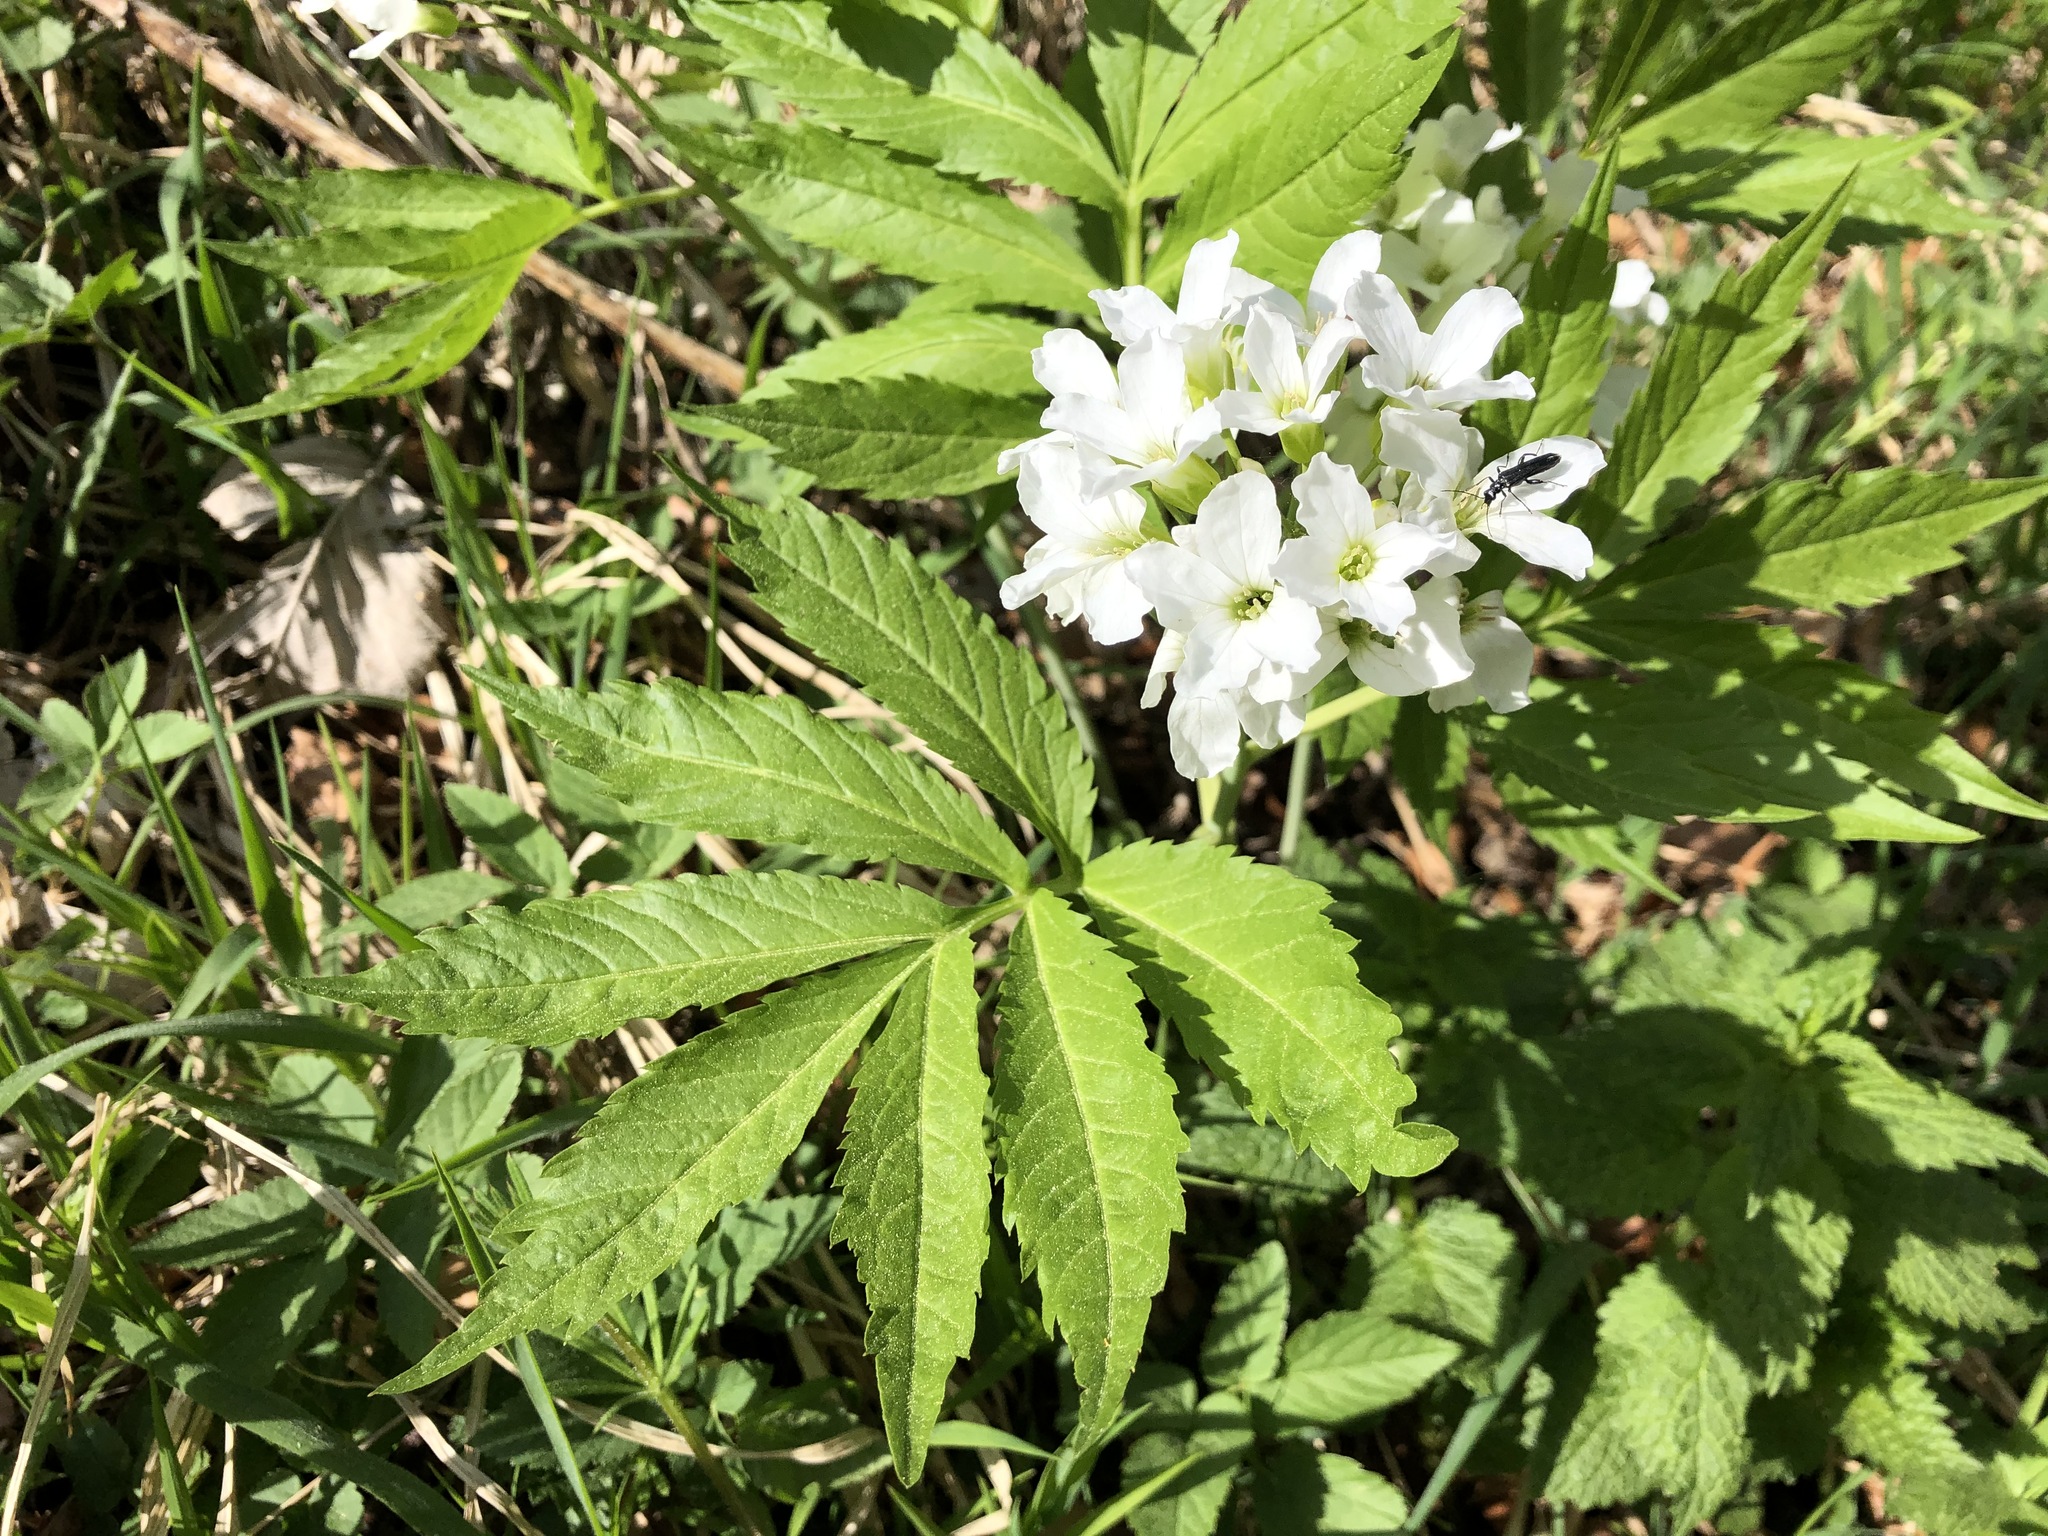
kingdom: Plantae
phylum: Tracheophyta
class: Magnoliopsida
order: Brassicales
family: Brassicaceae
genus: Cardamine
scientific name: Cardamine heptaphylla
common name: Pinnate coralroot
